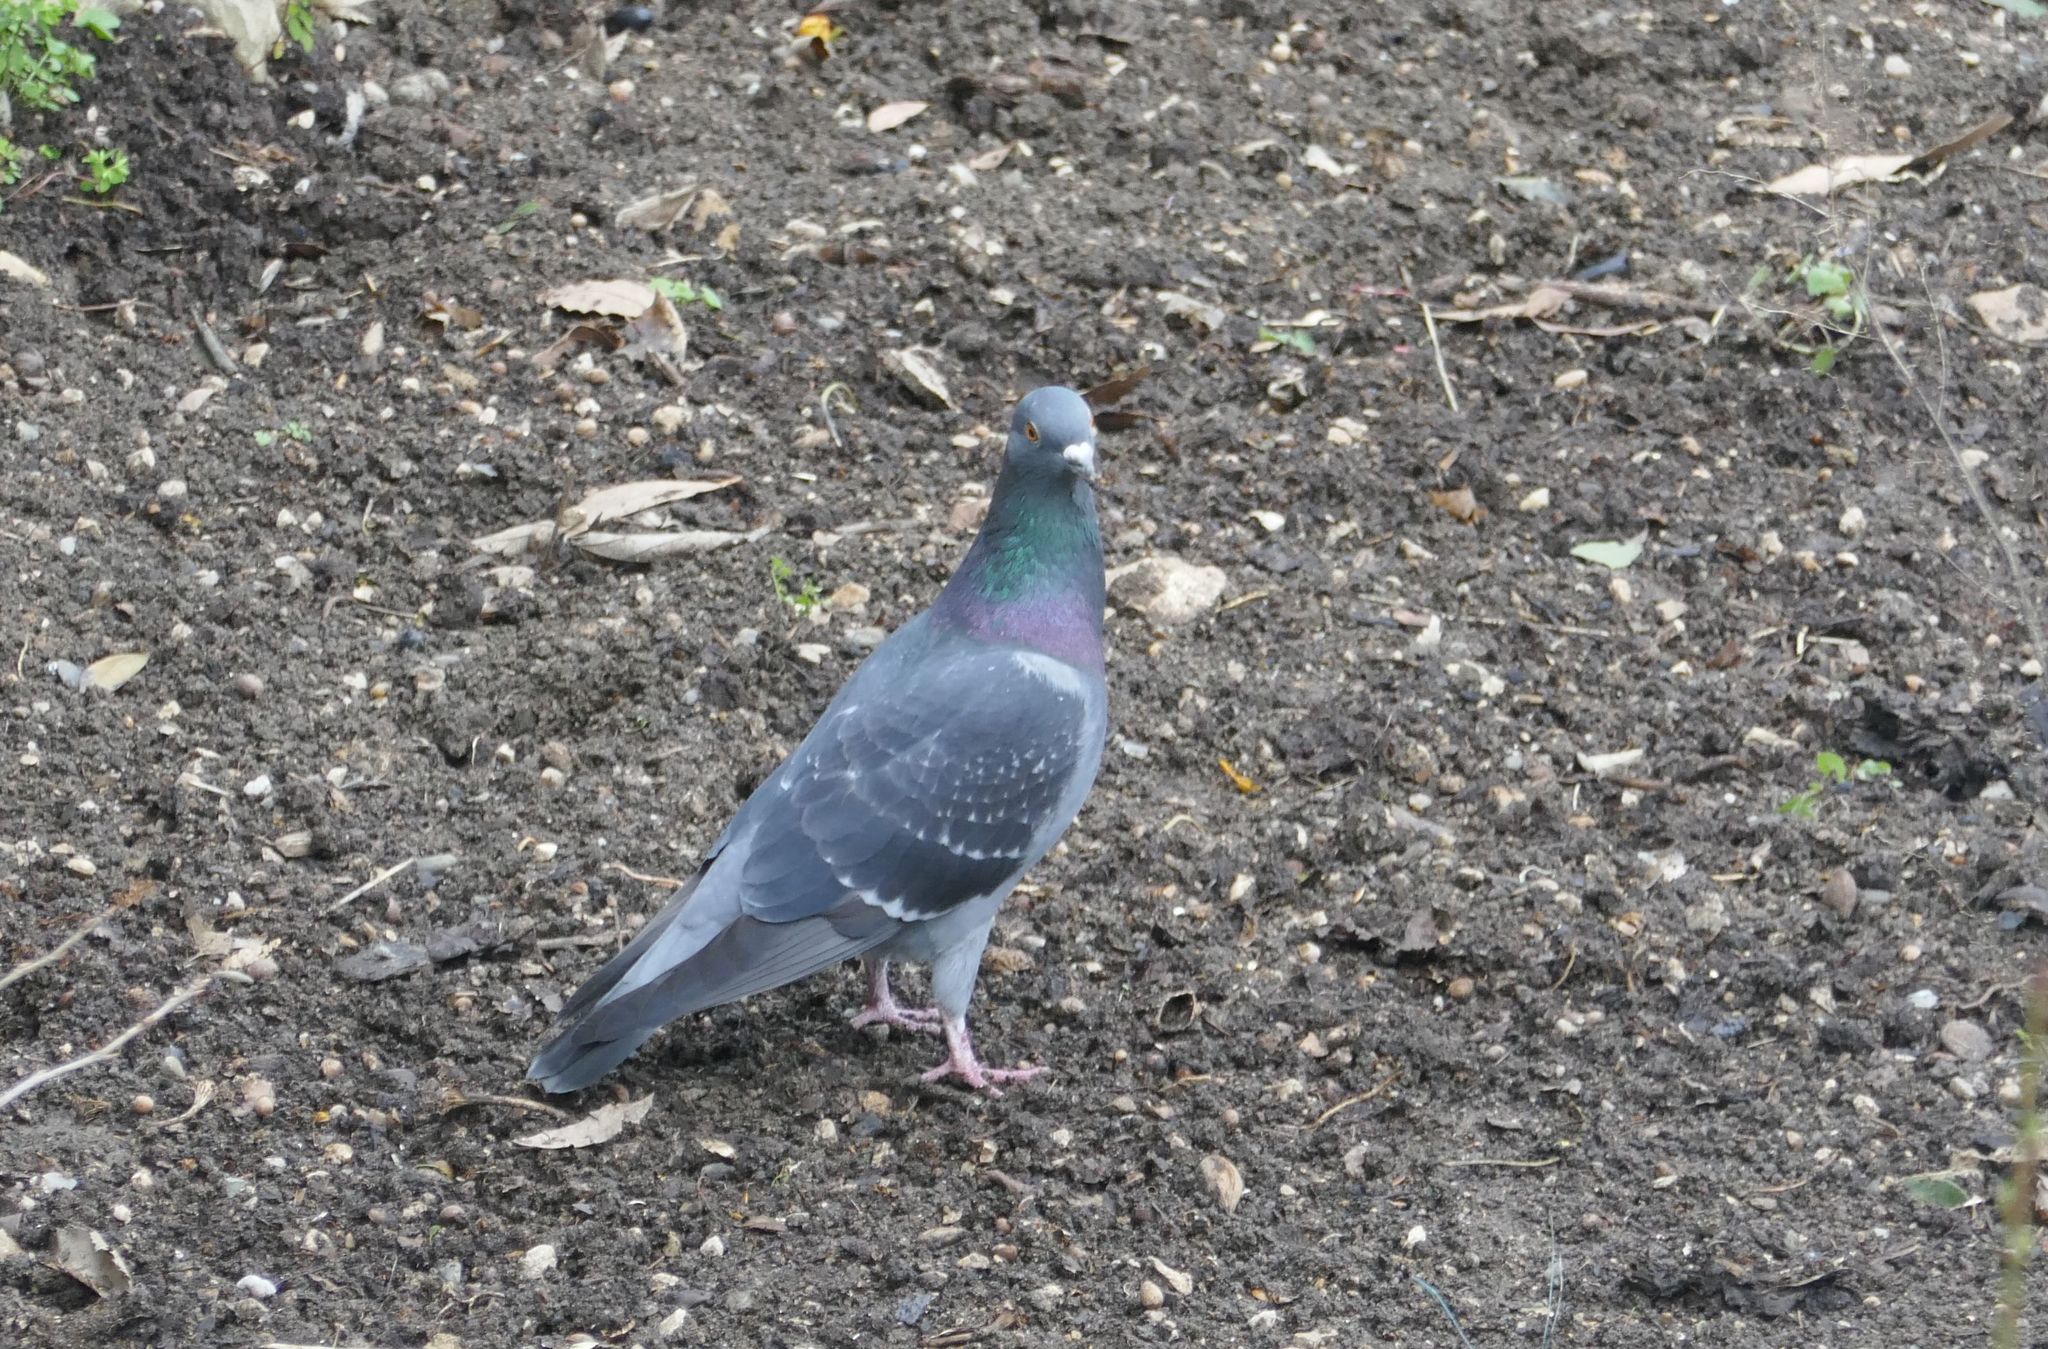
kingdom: Animalia
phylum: Chordata
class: Aves
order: Columbiformes
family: Columbidae
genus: Columba
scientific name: Columba livia
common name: Rock pigeon
